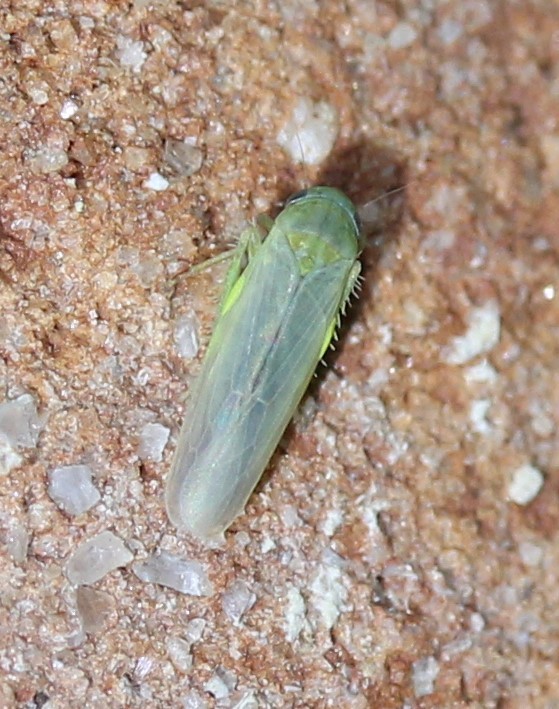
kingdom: Animalia
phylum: Arthropoda
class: Insecta
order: Hemiptera
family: Cicadellidae
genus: Balclutha
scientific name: Balclutha abdominalis
